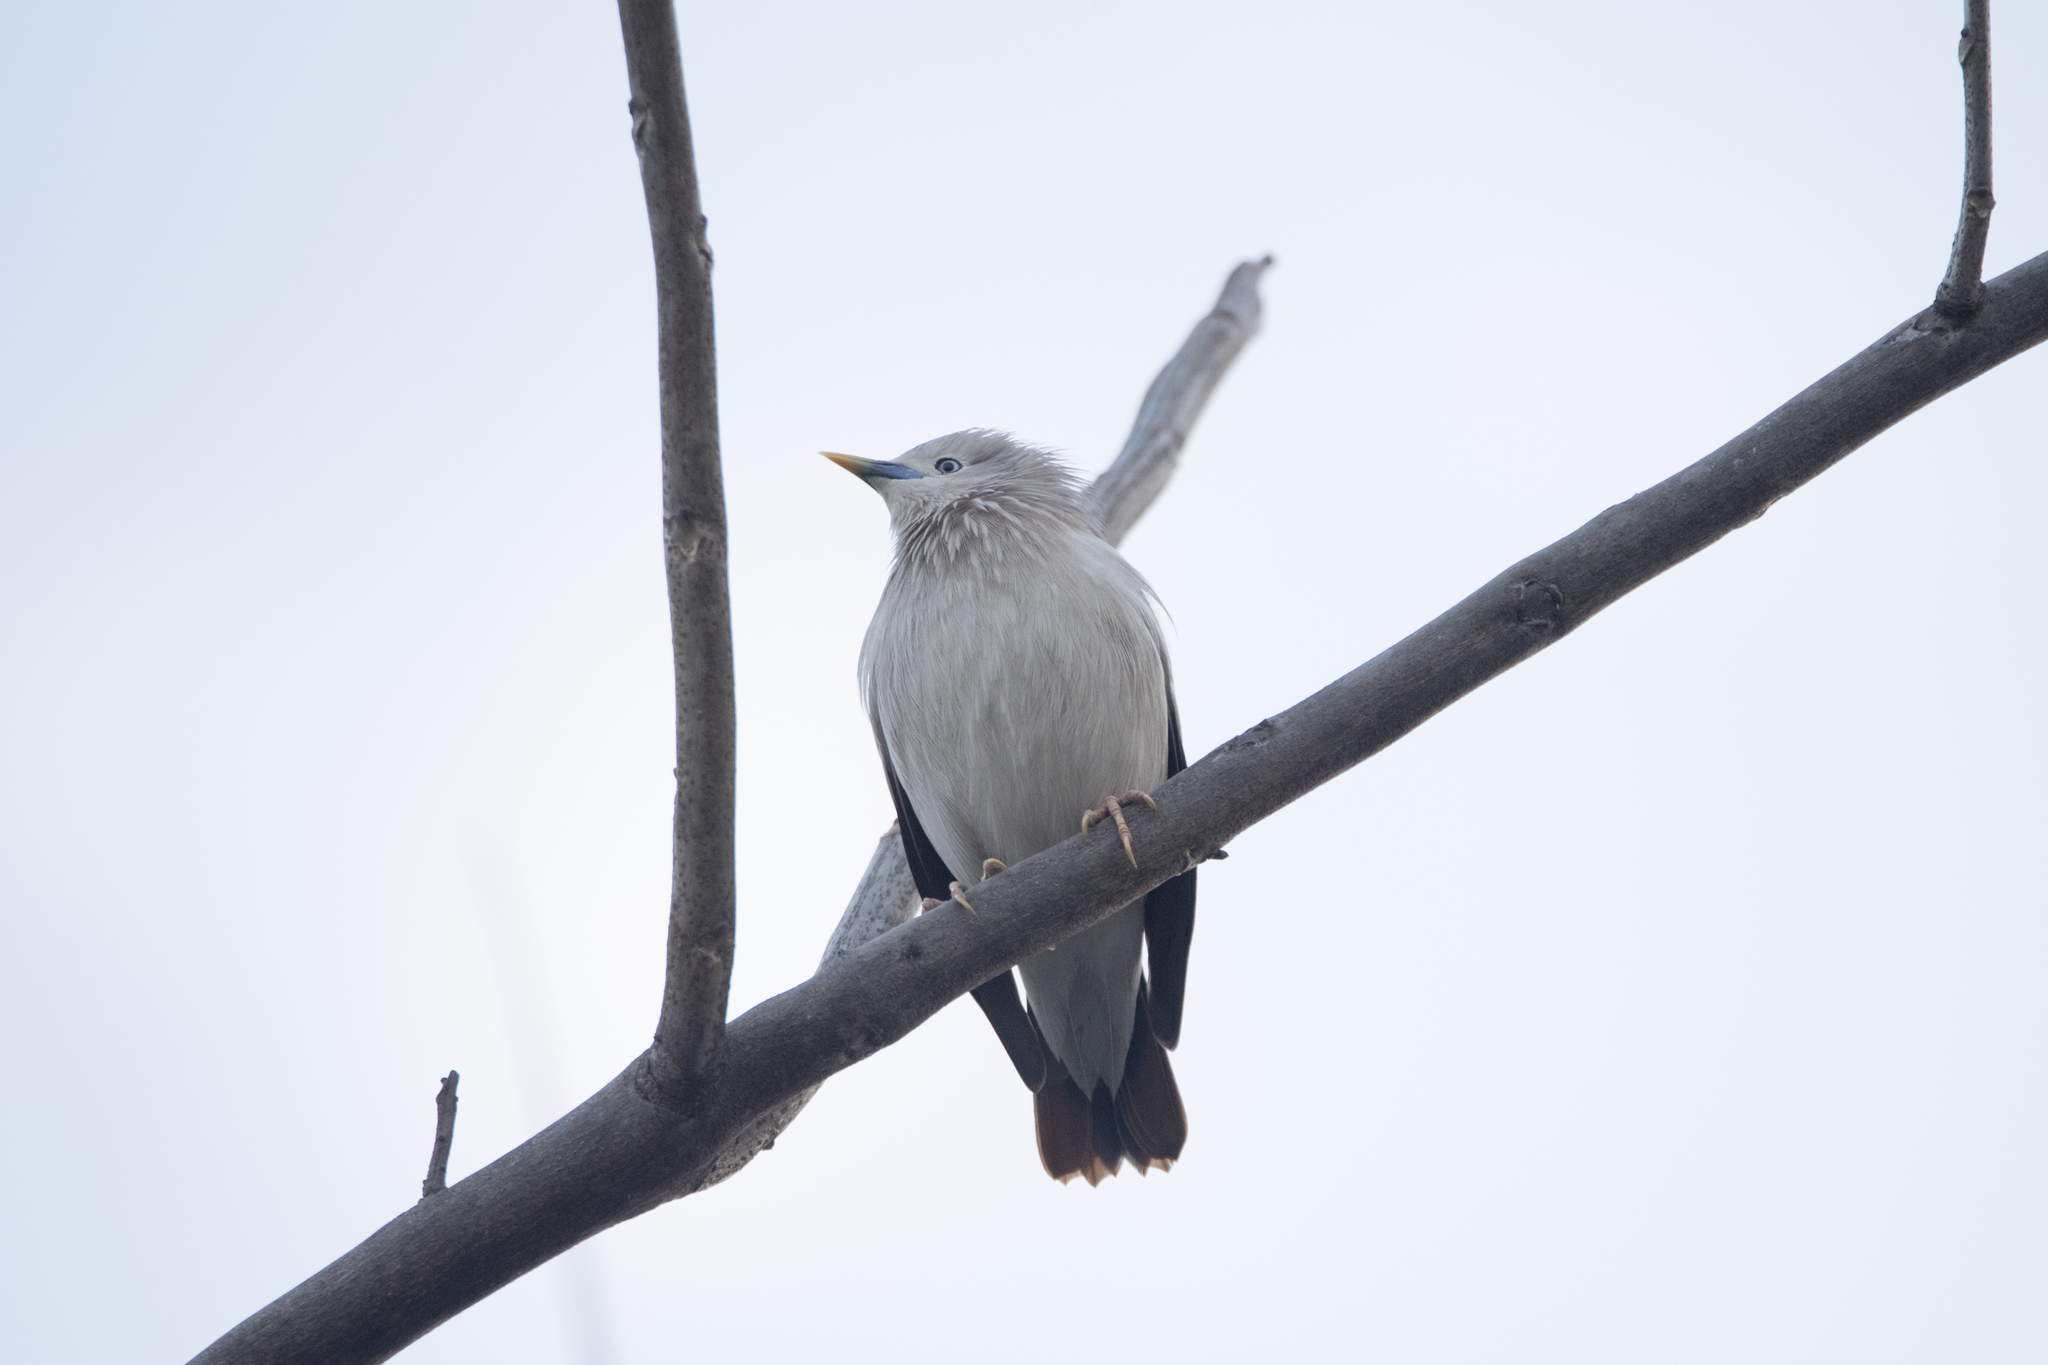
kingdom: Animalia
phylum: Chordata
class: Aves
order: Passeriformes
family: Sturnidae
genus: Sturnia
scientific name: Sturnia malabarica
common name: Chestnut-tailed starling
